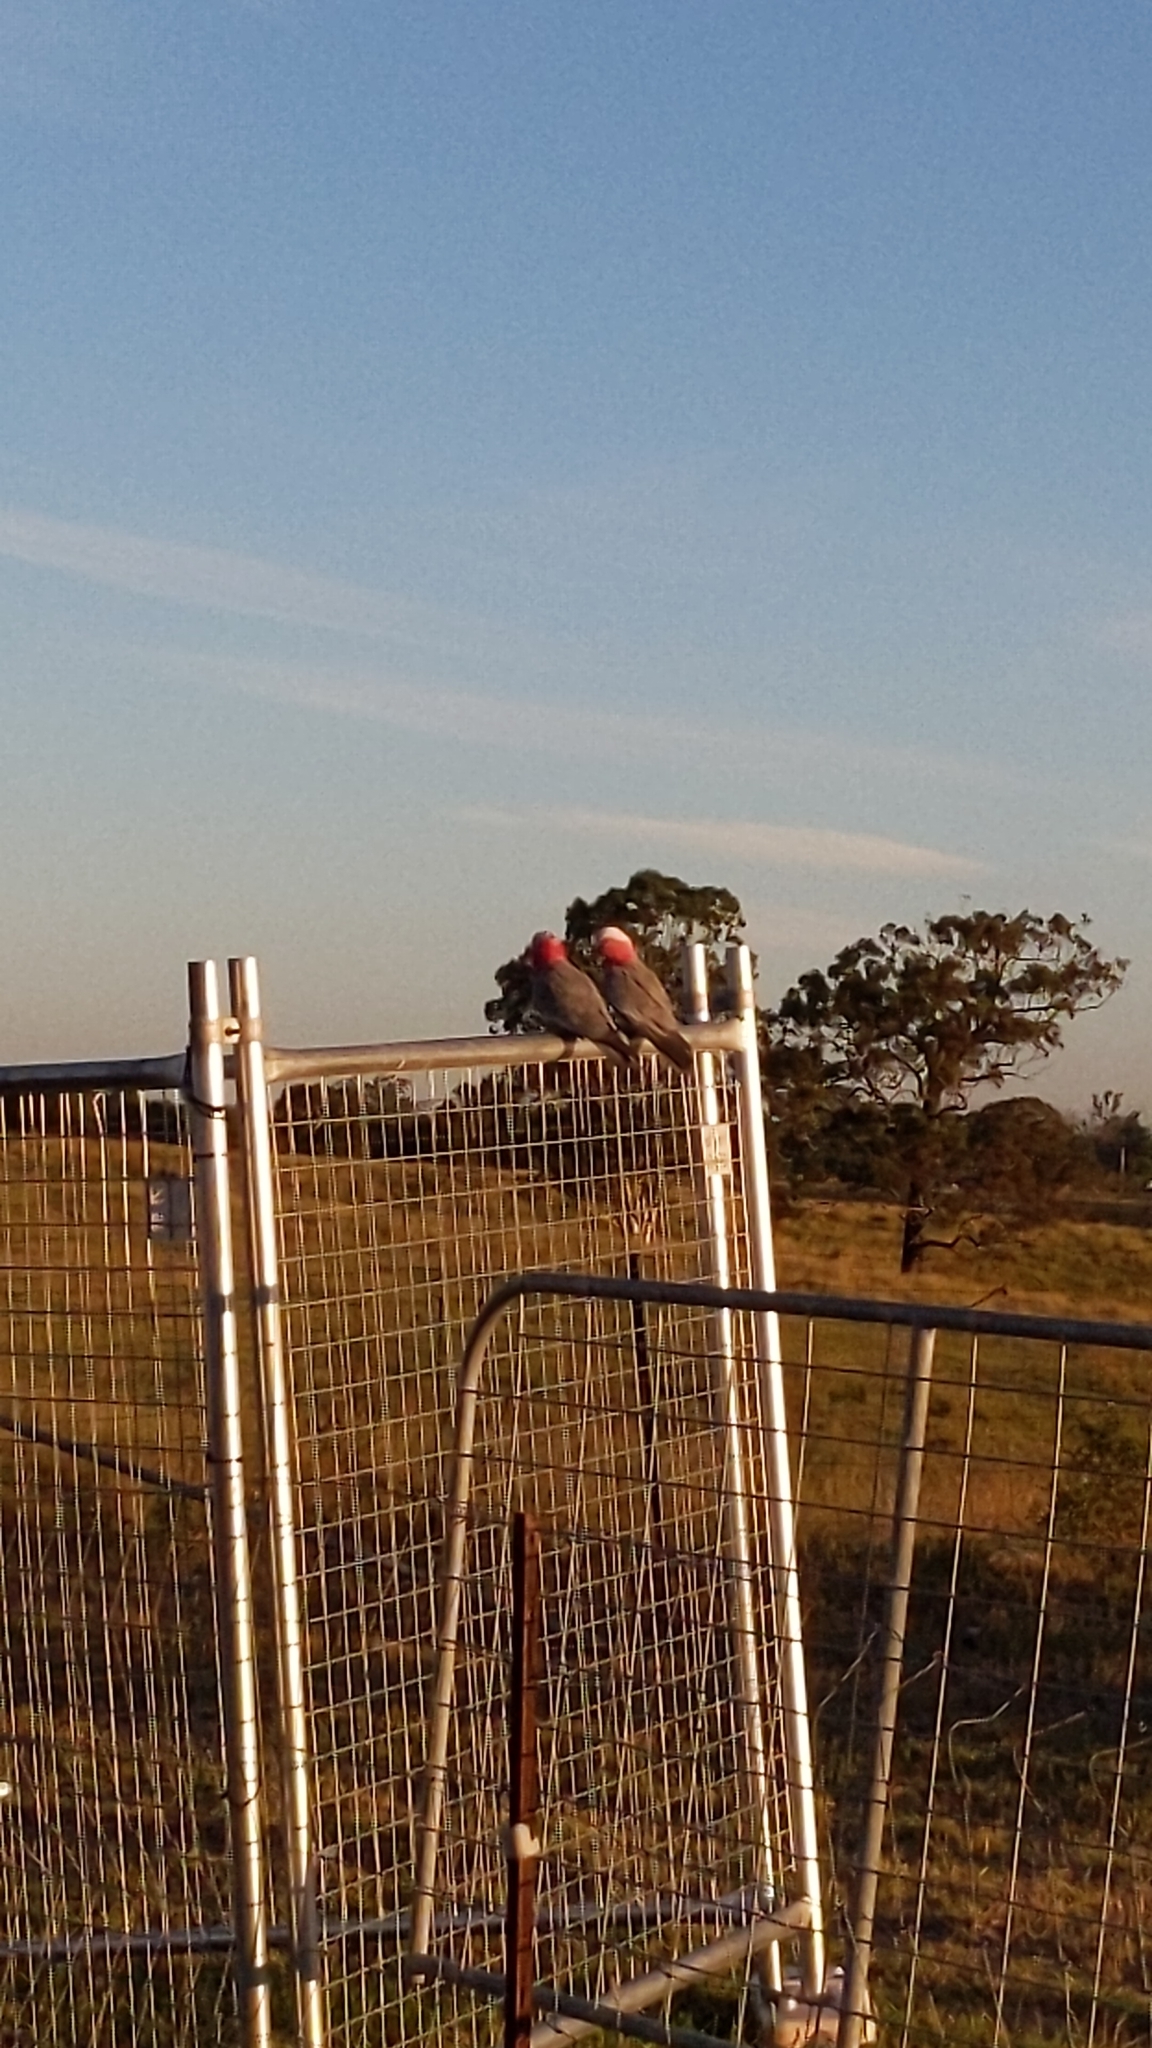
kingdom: Animalia
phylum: Chordata
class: Aves
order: Psittaciformes
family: Psittacidae
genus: Eolophus
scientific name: Eolophus roseicapilla
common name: Galah
